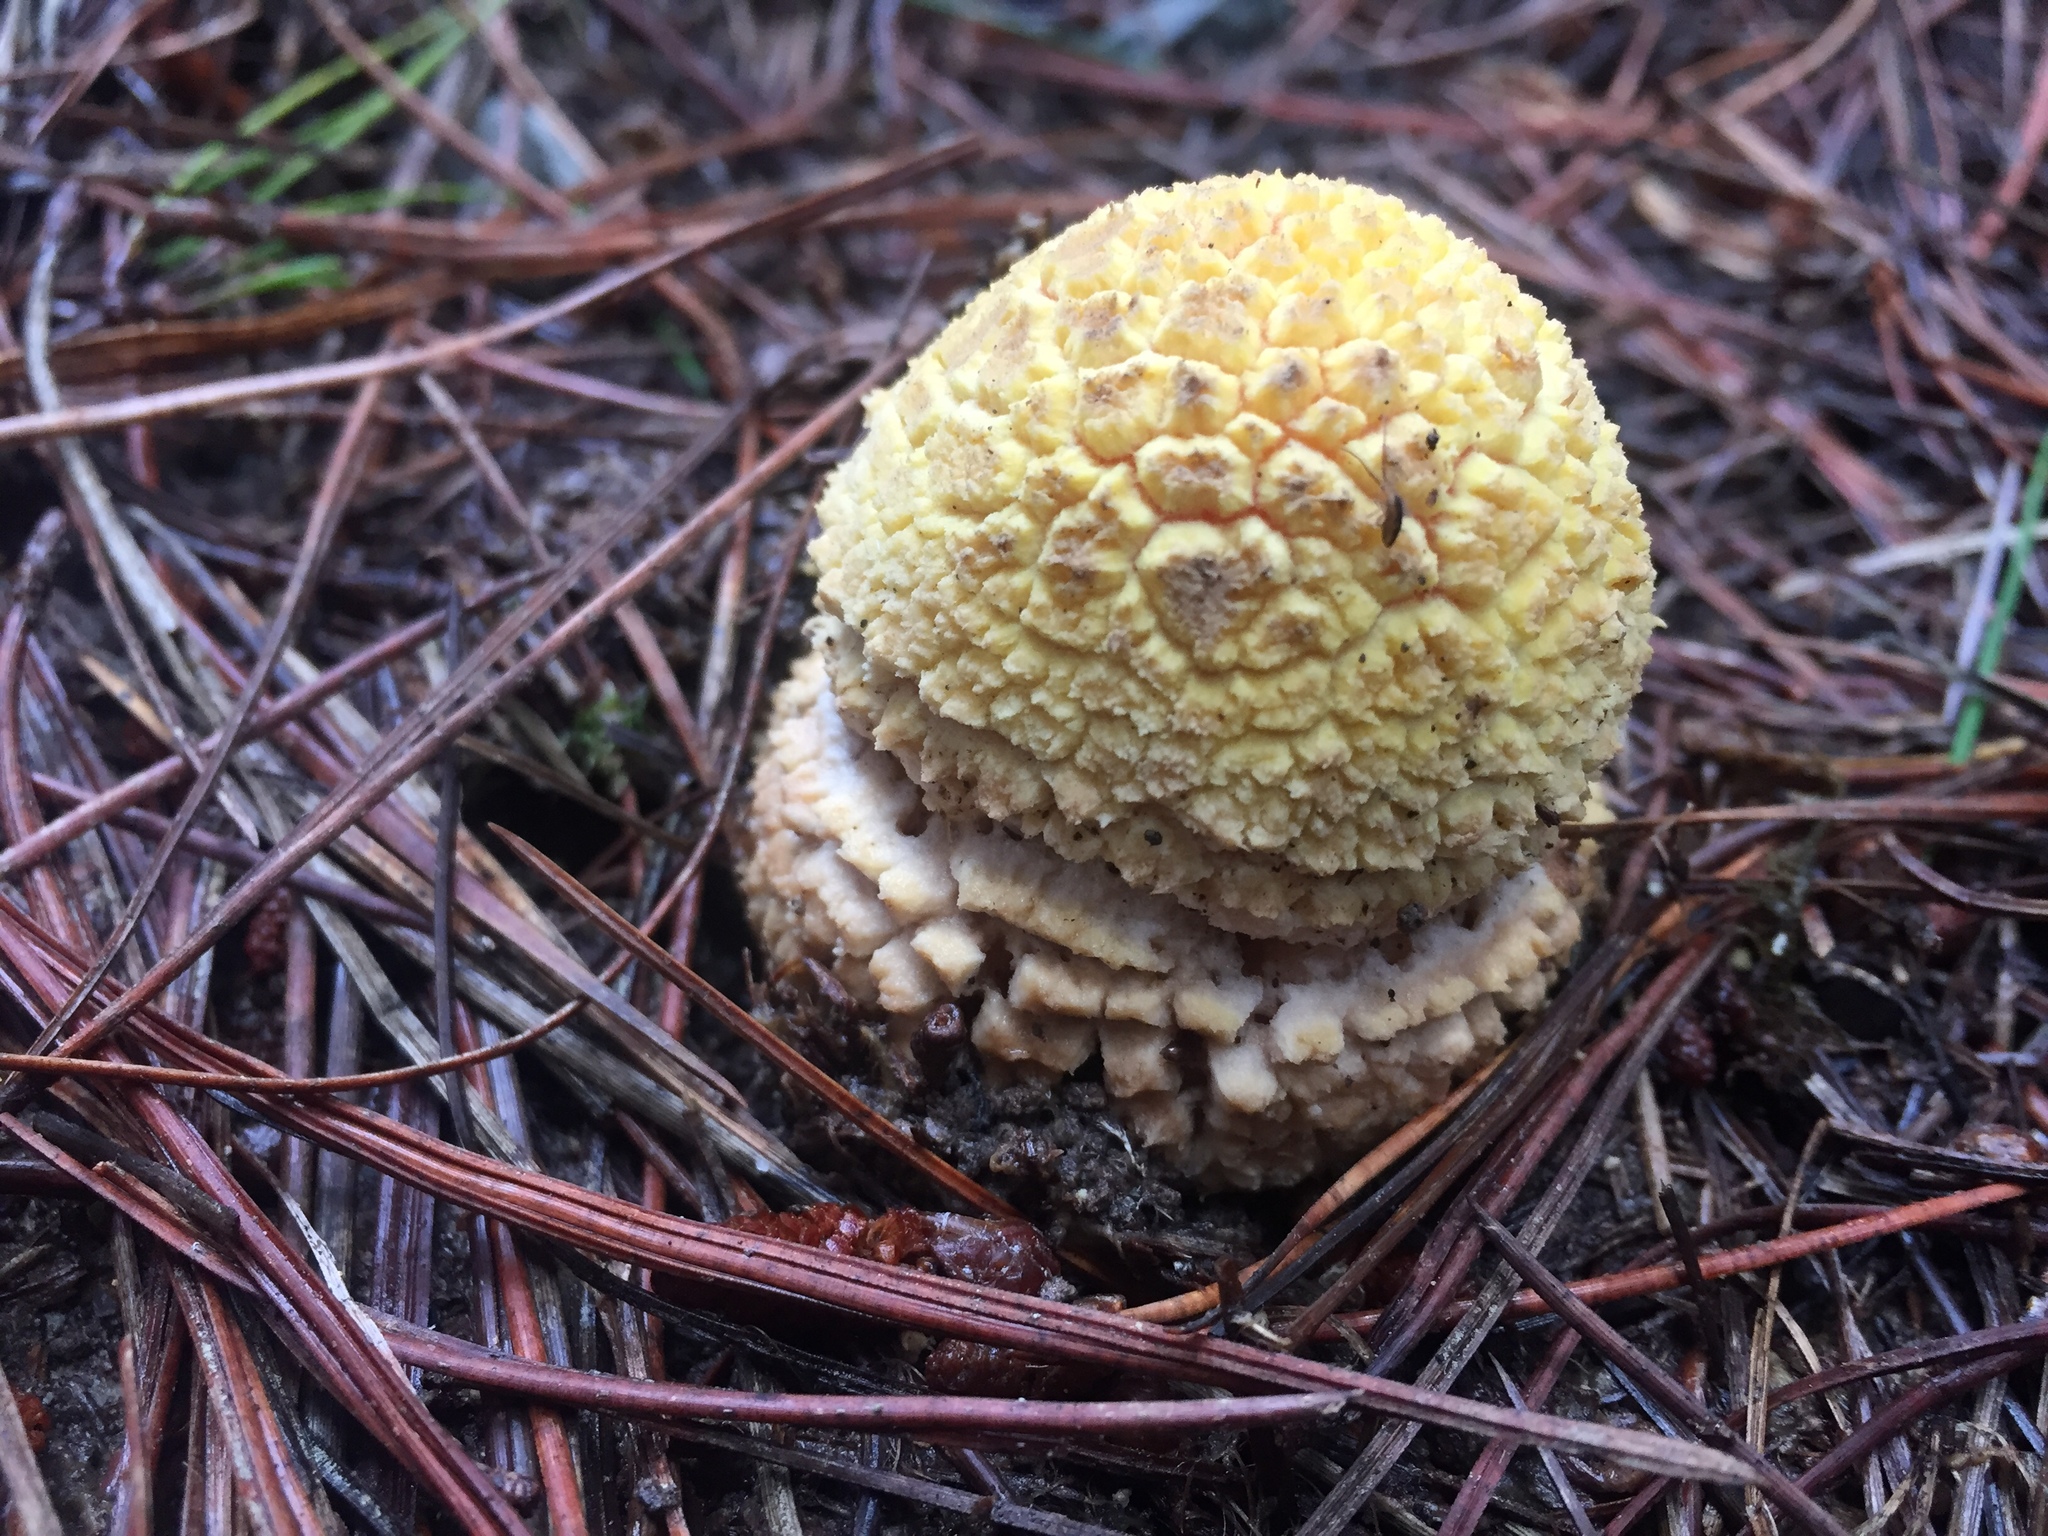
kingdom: Fungi
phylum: Basidiomycota
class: Agaricomycetes
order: Agaricales
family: Amanitaceae
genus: Amanita
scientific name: Amanita muscaria
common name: Fly agaric
